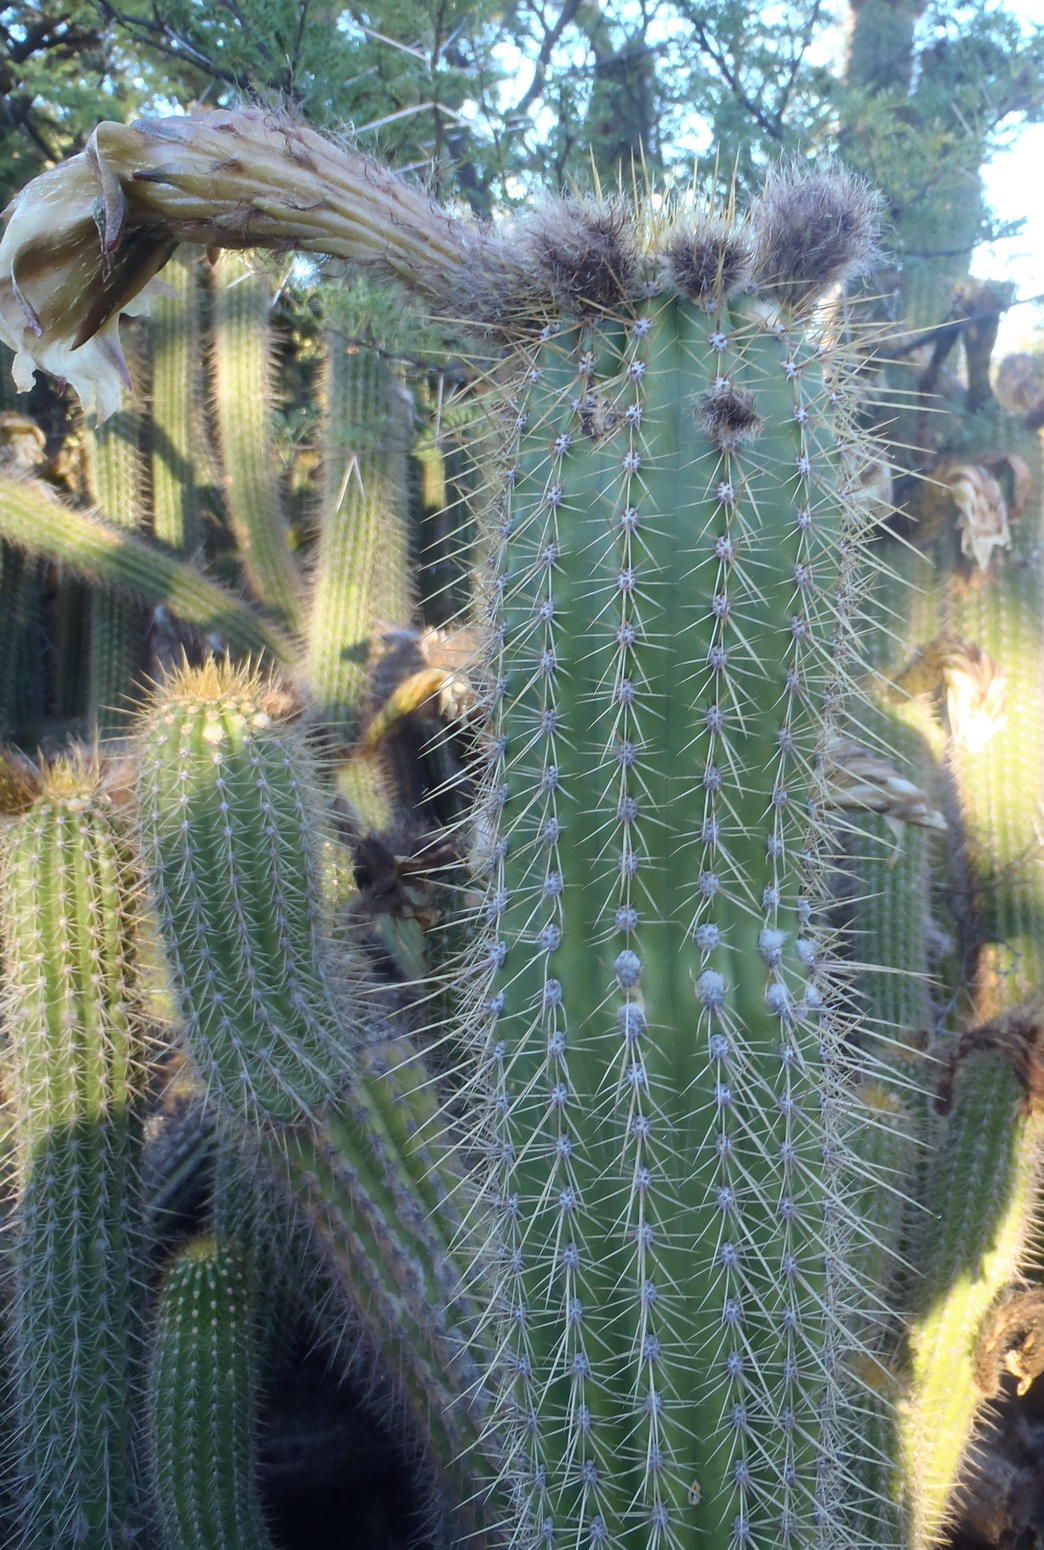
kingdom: Plantae
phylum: Tracheophyta
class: Magnoliopsida
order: Caryophyllales
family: Cactaceae
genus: Soehrensia
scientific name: Soehrensia spachiana
